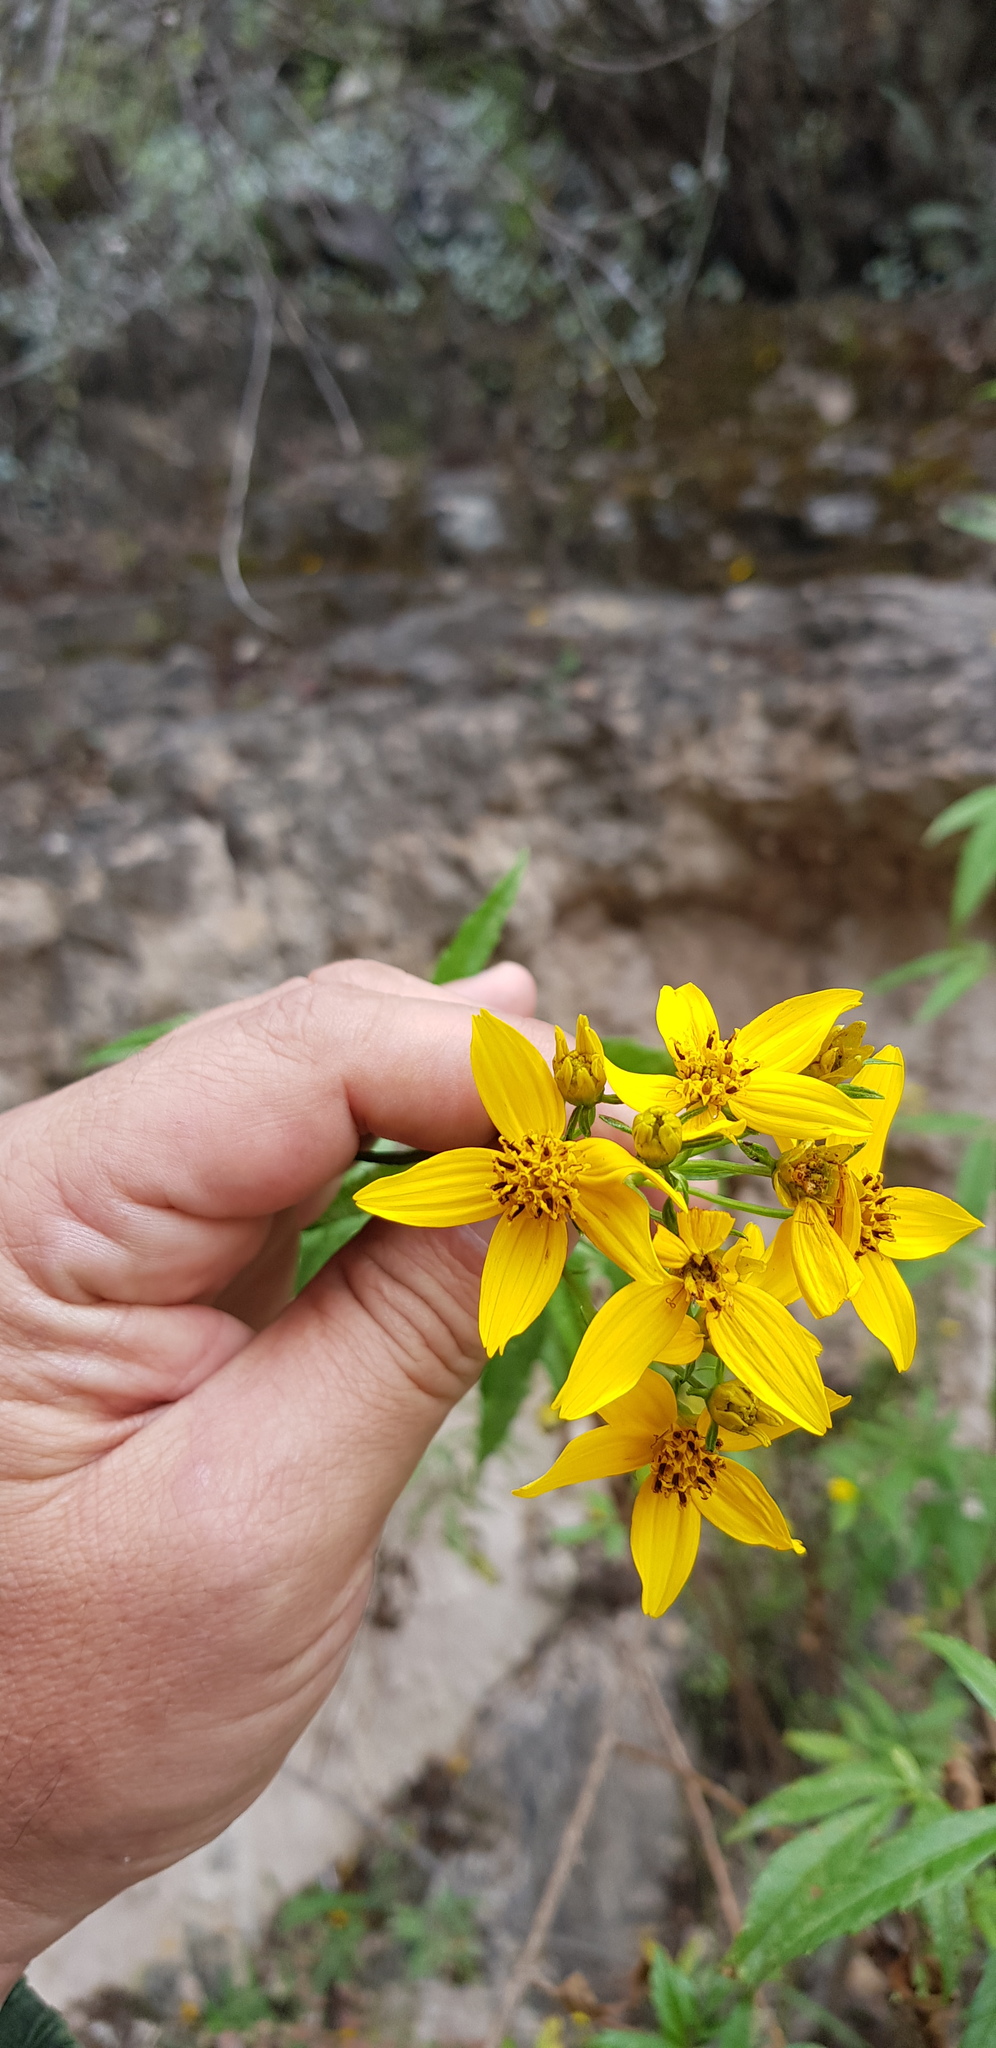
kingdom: Plantae
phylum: Tracheophyta
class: Magnoliopsida
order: Asterales
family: Asteraceae
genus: Electranthera
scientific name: Electranthera mutica
